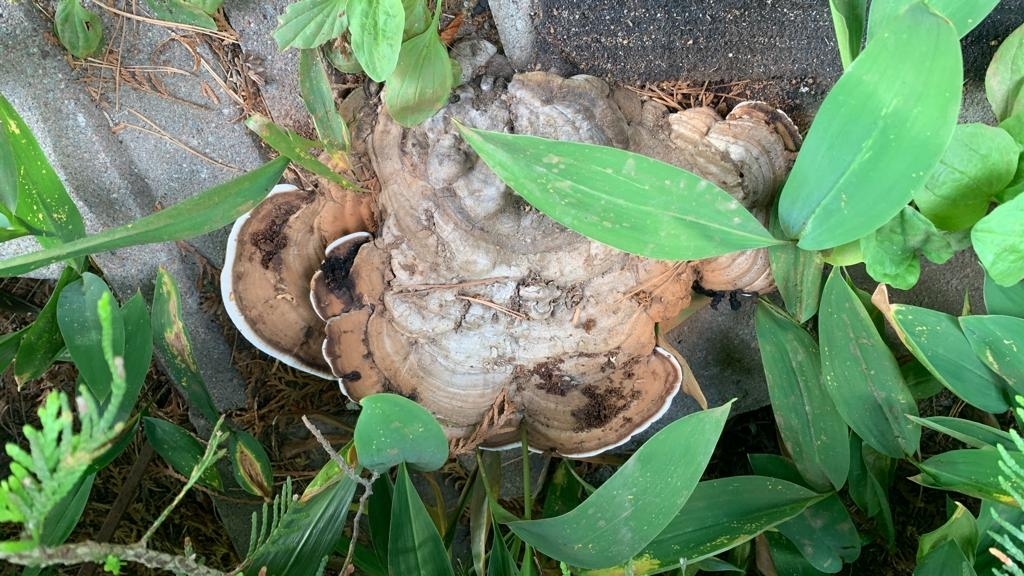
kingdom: Fungi
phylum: Basidiomycota
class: Agaricomycetes
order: Polyporales
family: Polyporaceae
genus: Ganoderma
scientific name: Ganoderma applanatum
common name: Artist's bracket
